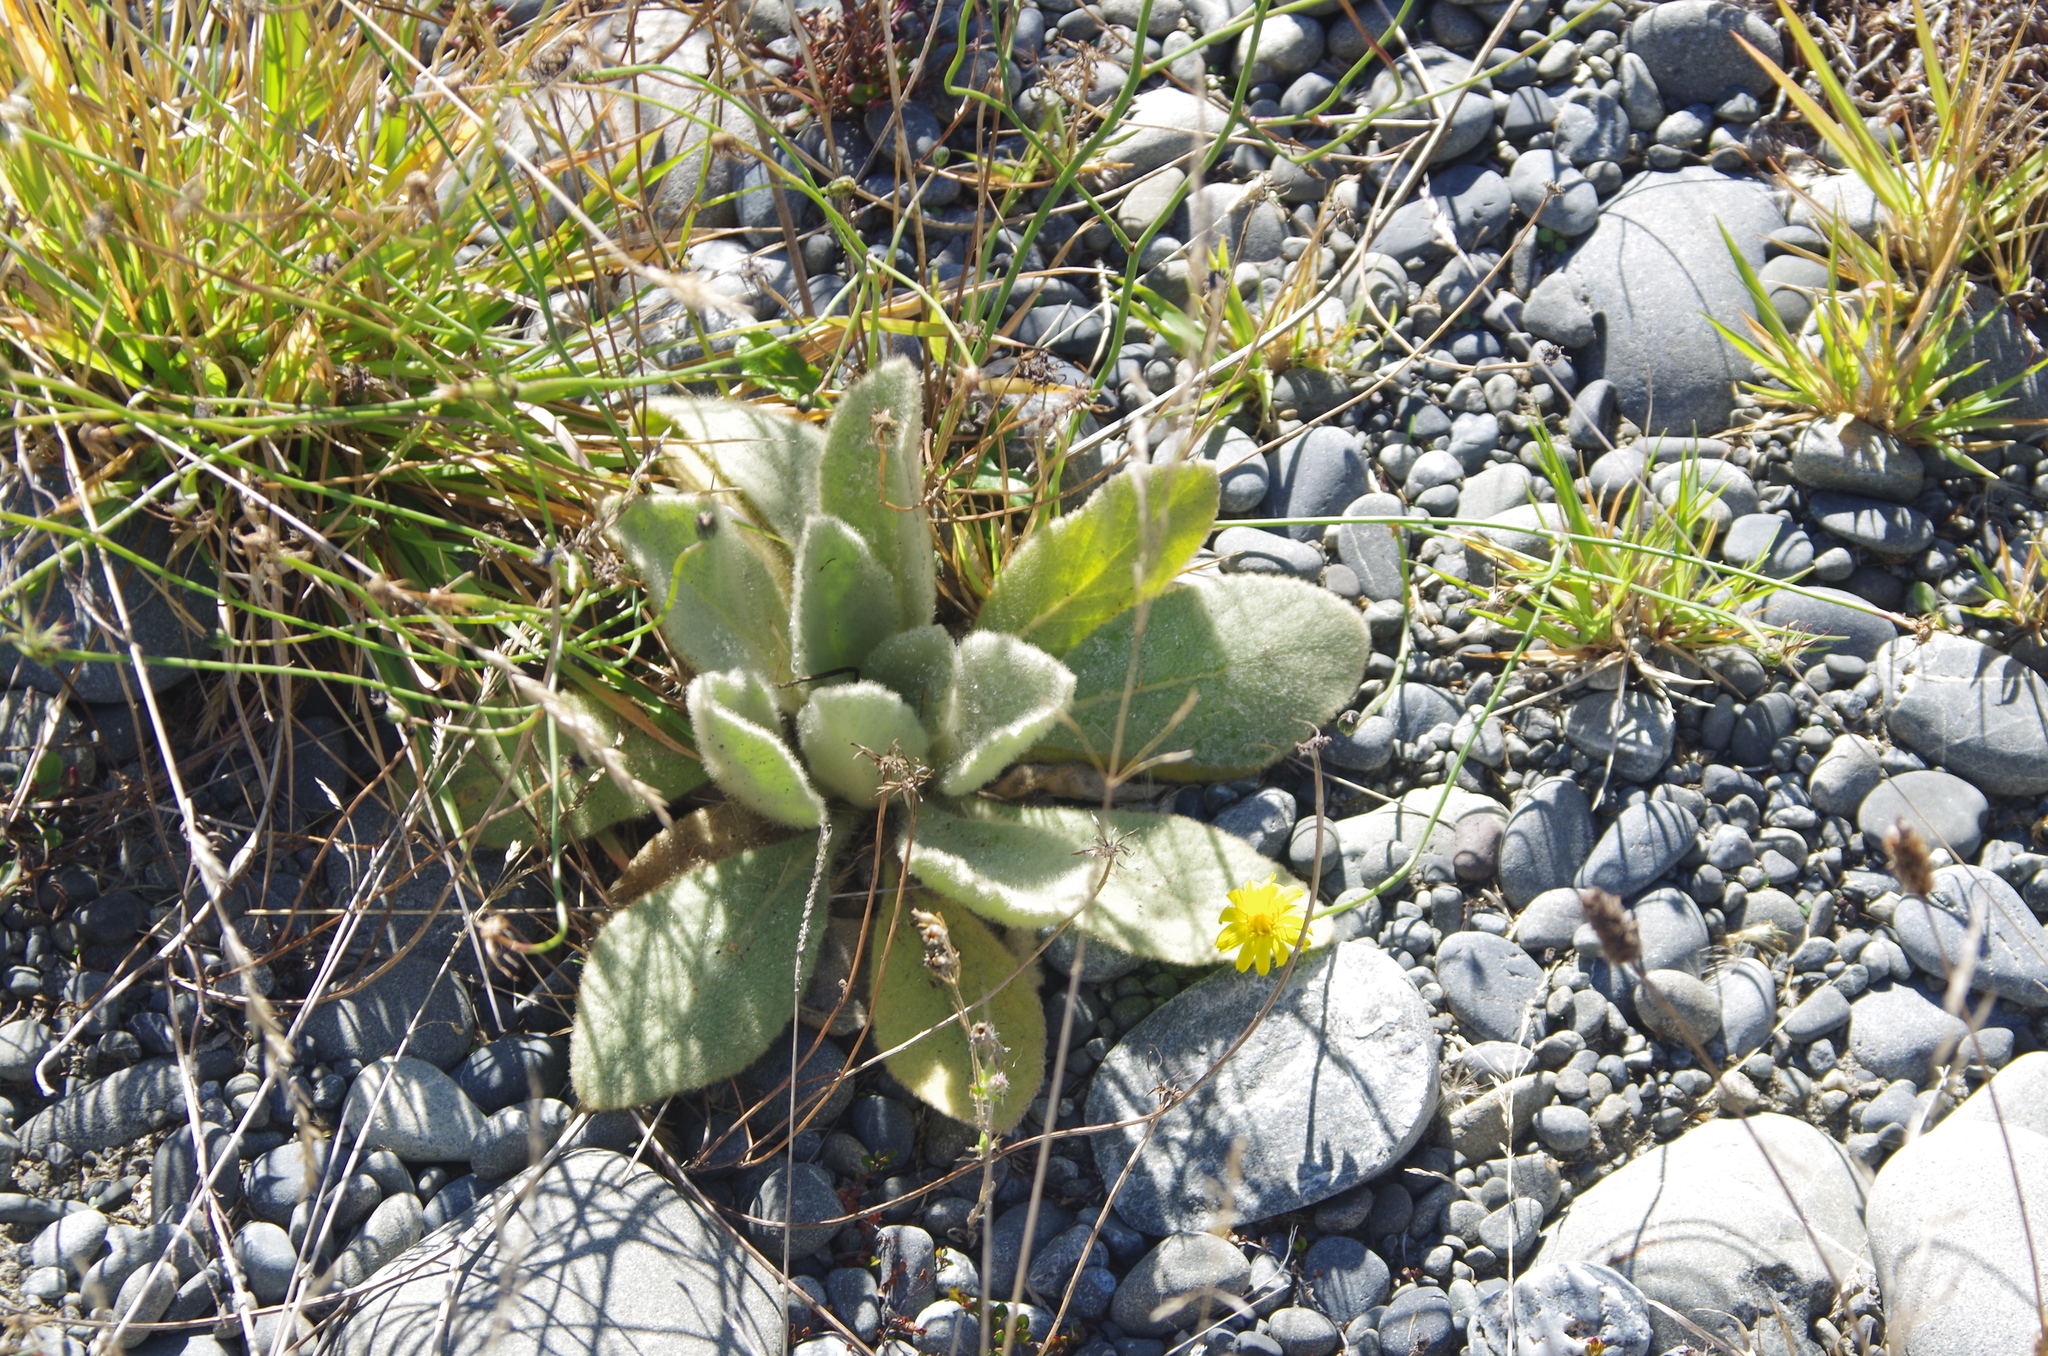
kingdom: Plantae
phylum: Tracheophyta
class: Magnoliopsida
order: Lamiales
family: Scrophulariaceae
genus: Verbascum
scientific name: Verbascum thapsus
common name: Common mullein
